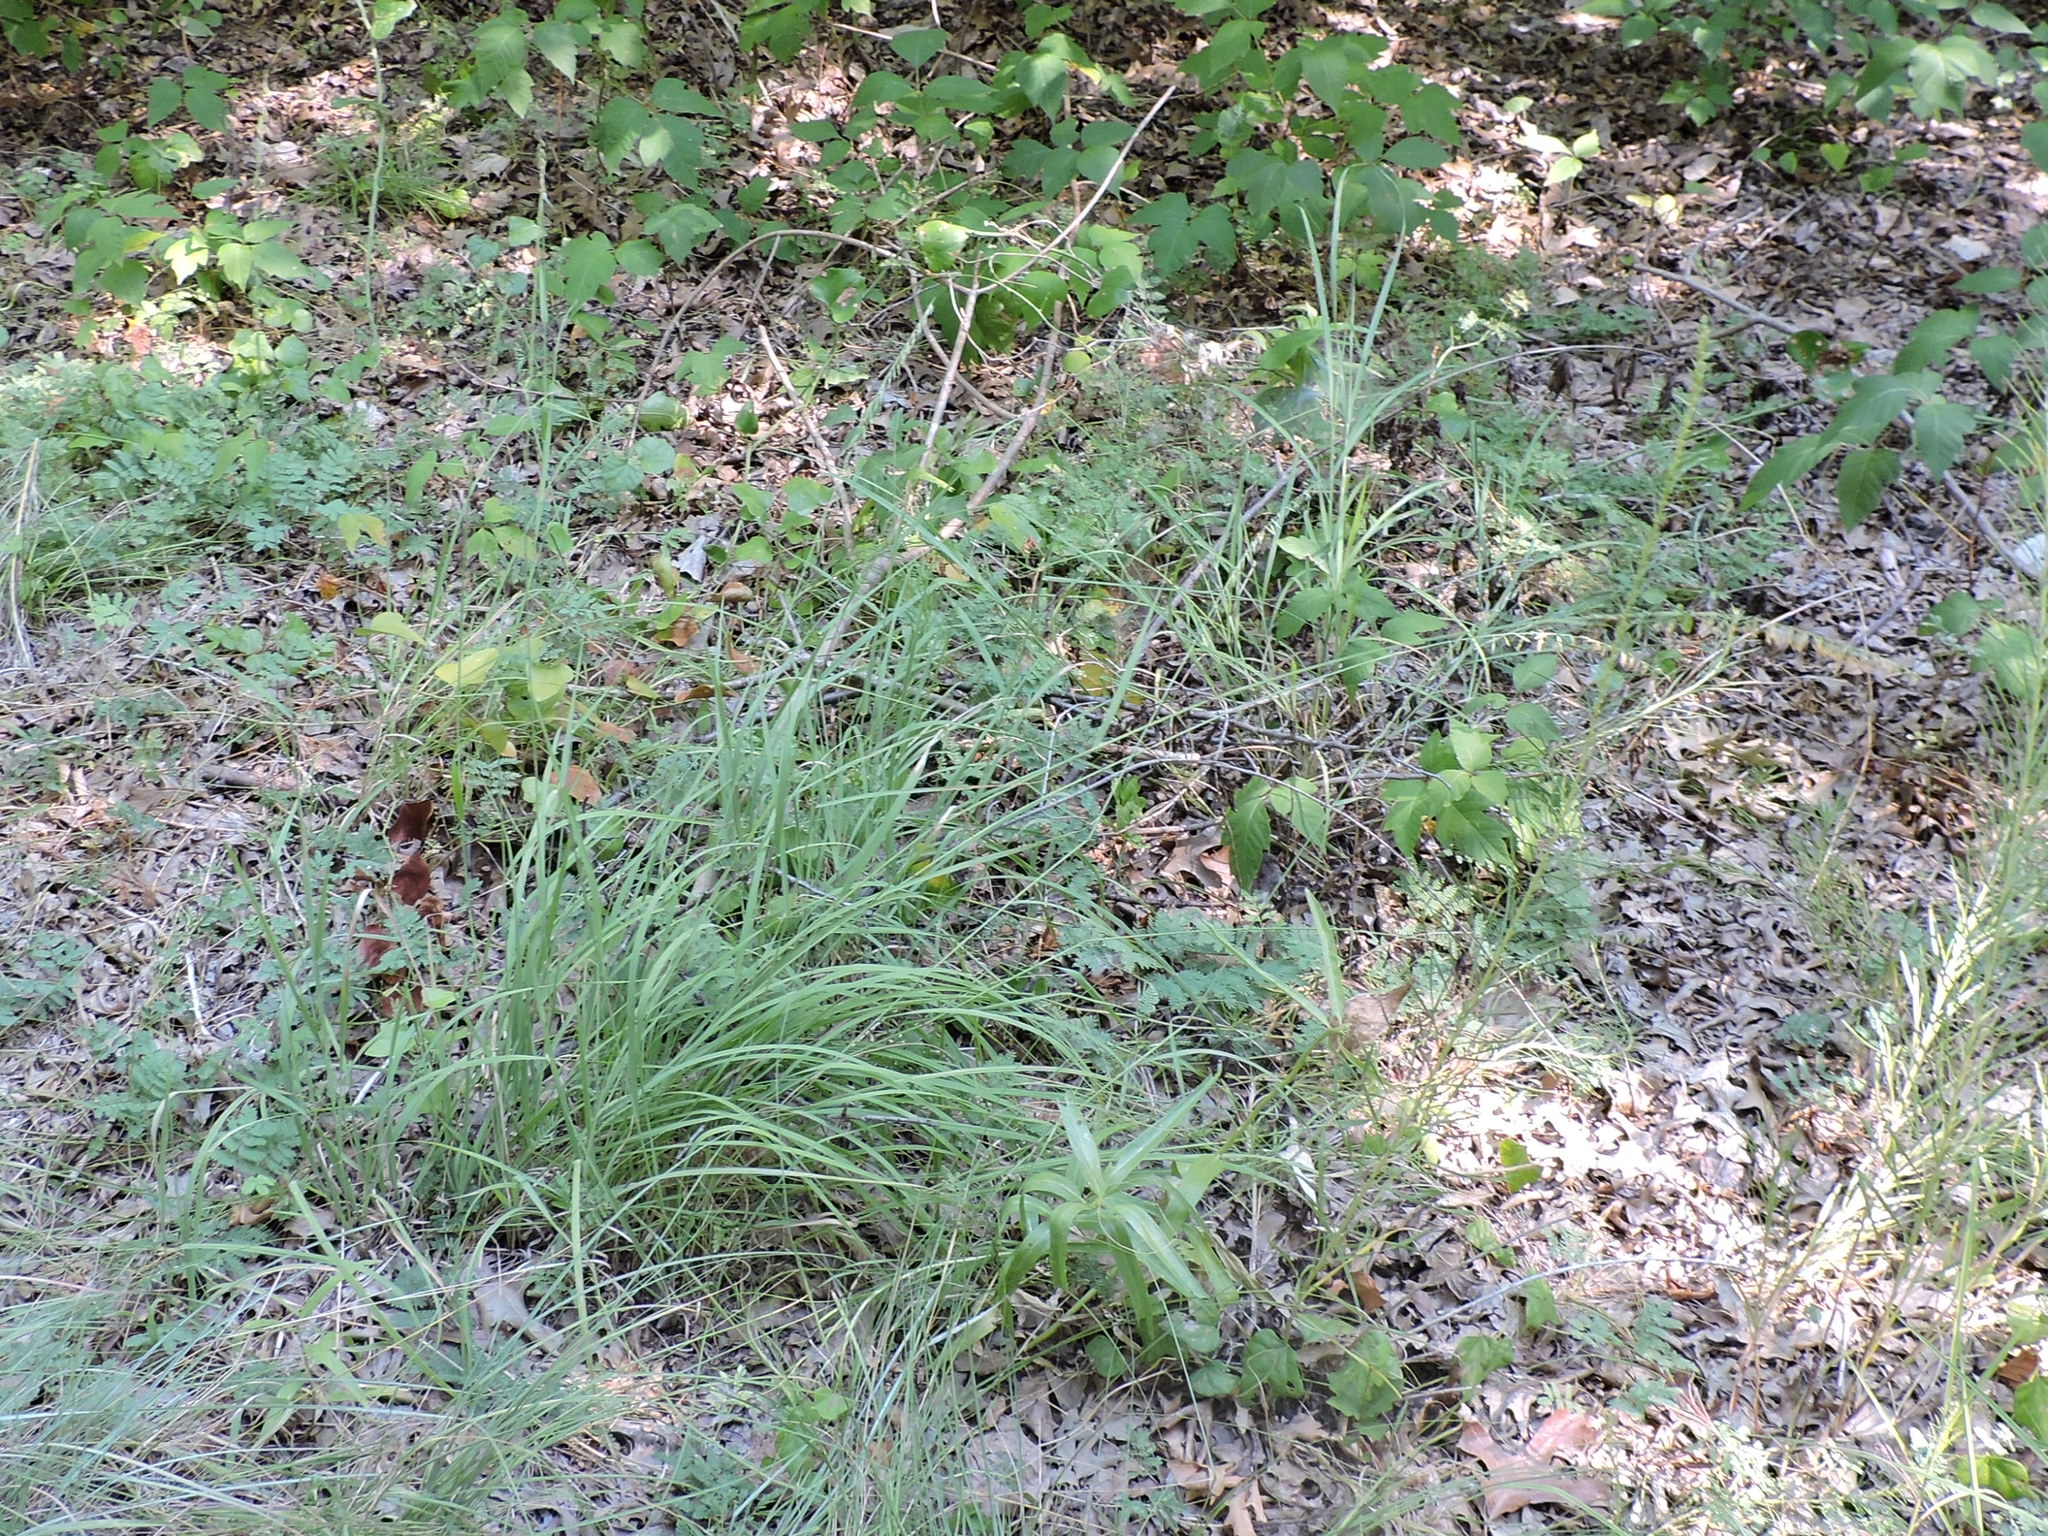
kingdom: Plantae
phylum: Tracheophyta
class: Liliopsida
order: Poales
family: Poaceae
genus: Bouteloua
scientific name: Bouteloua curtipendula
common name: Side-oats grama
